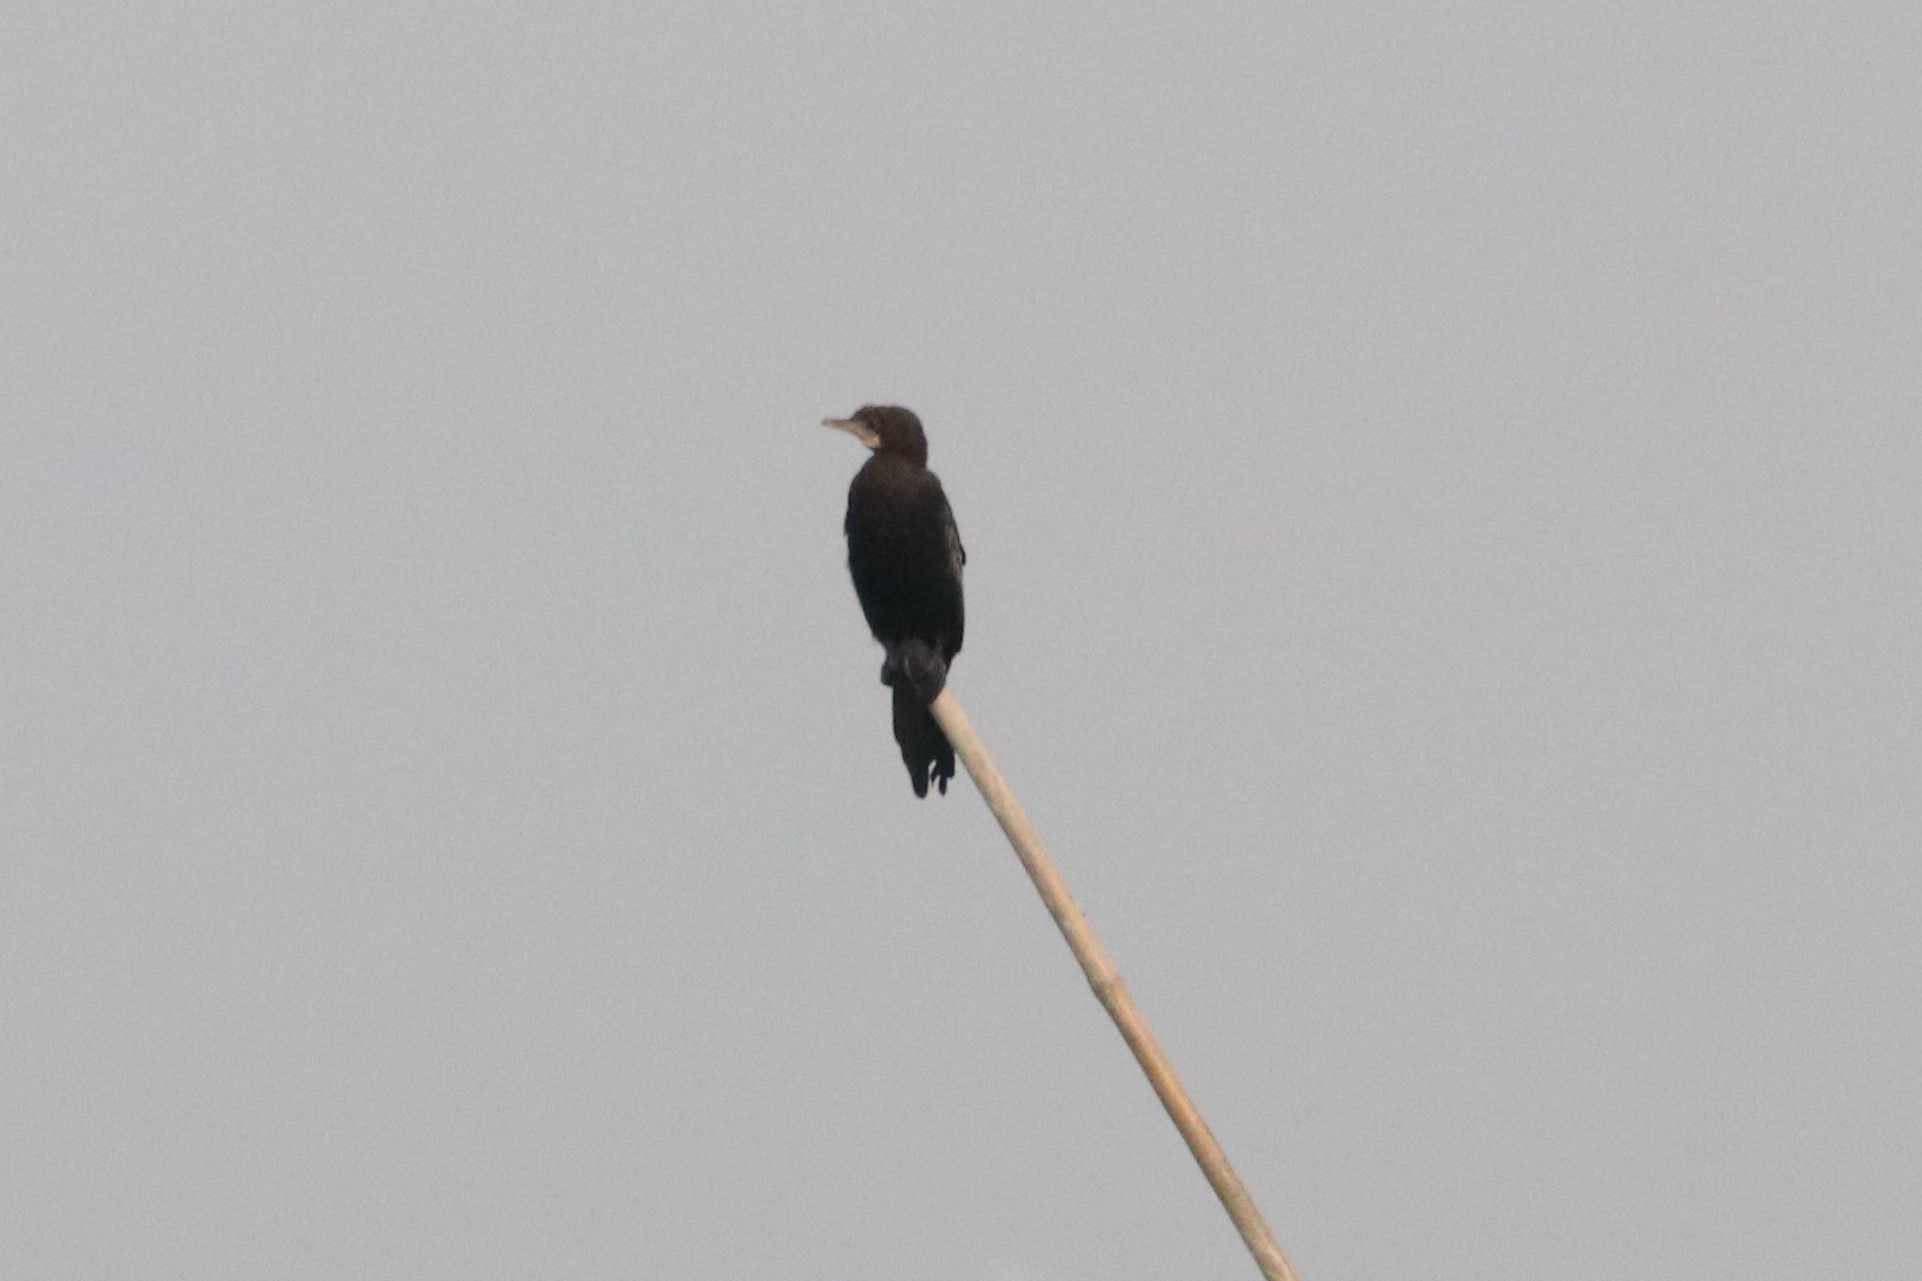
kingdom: Animalia
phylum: Chordata
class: Aves
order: Suliformes
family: Phalacrocoracidae
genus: Microcarbo
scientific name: Microcarbo niger
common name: Little cormorant
